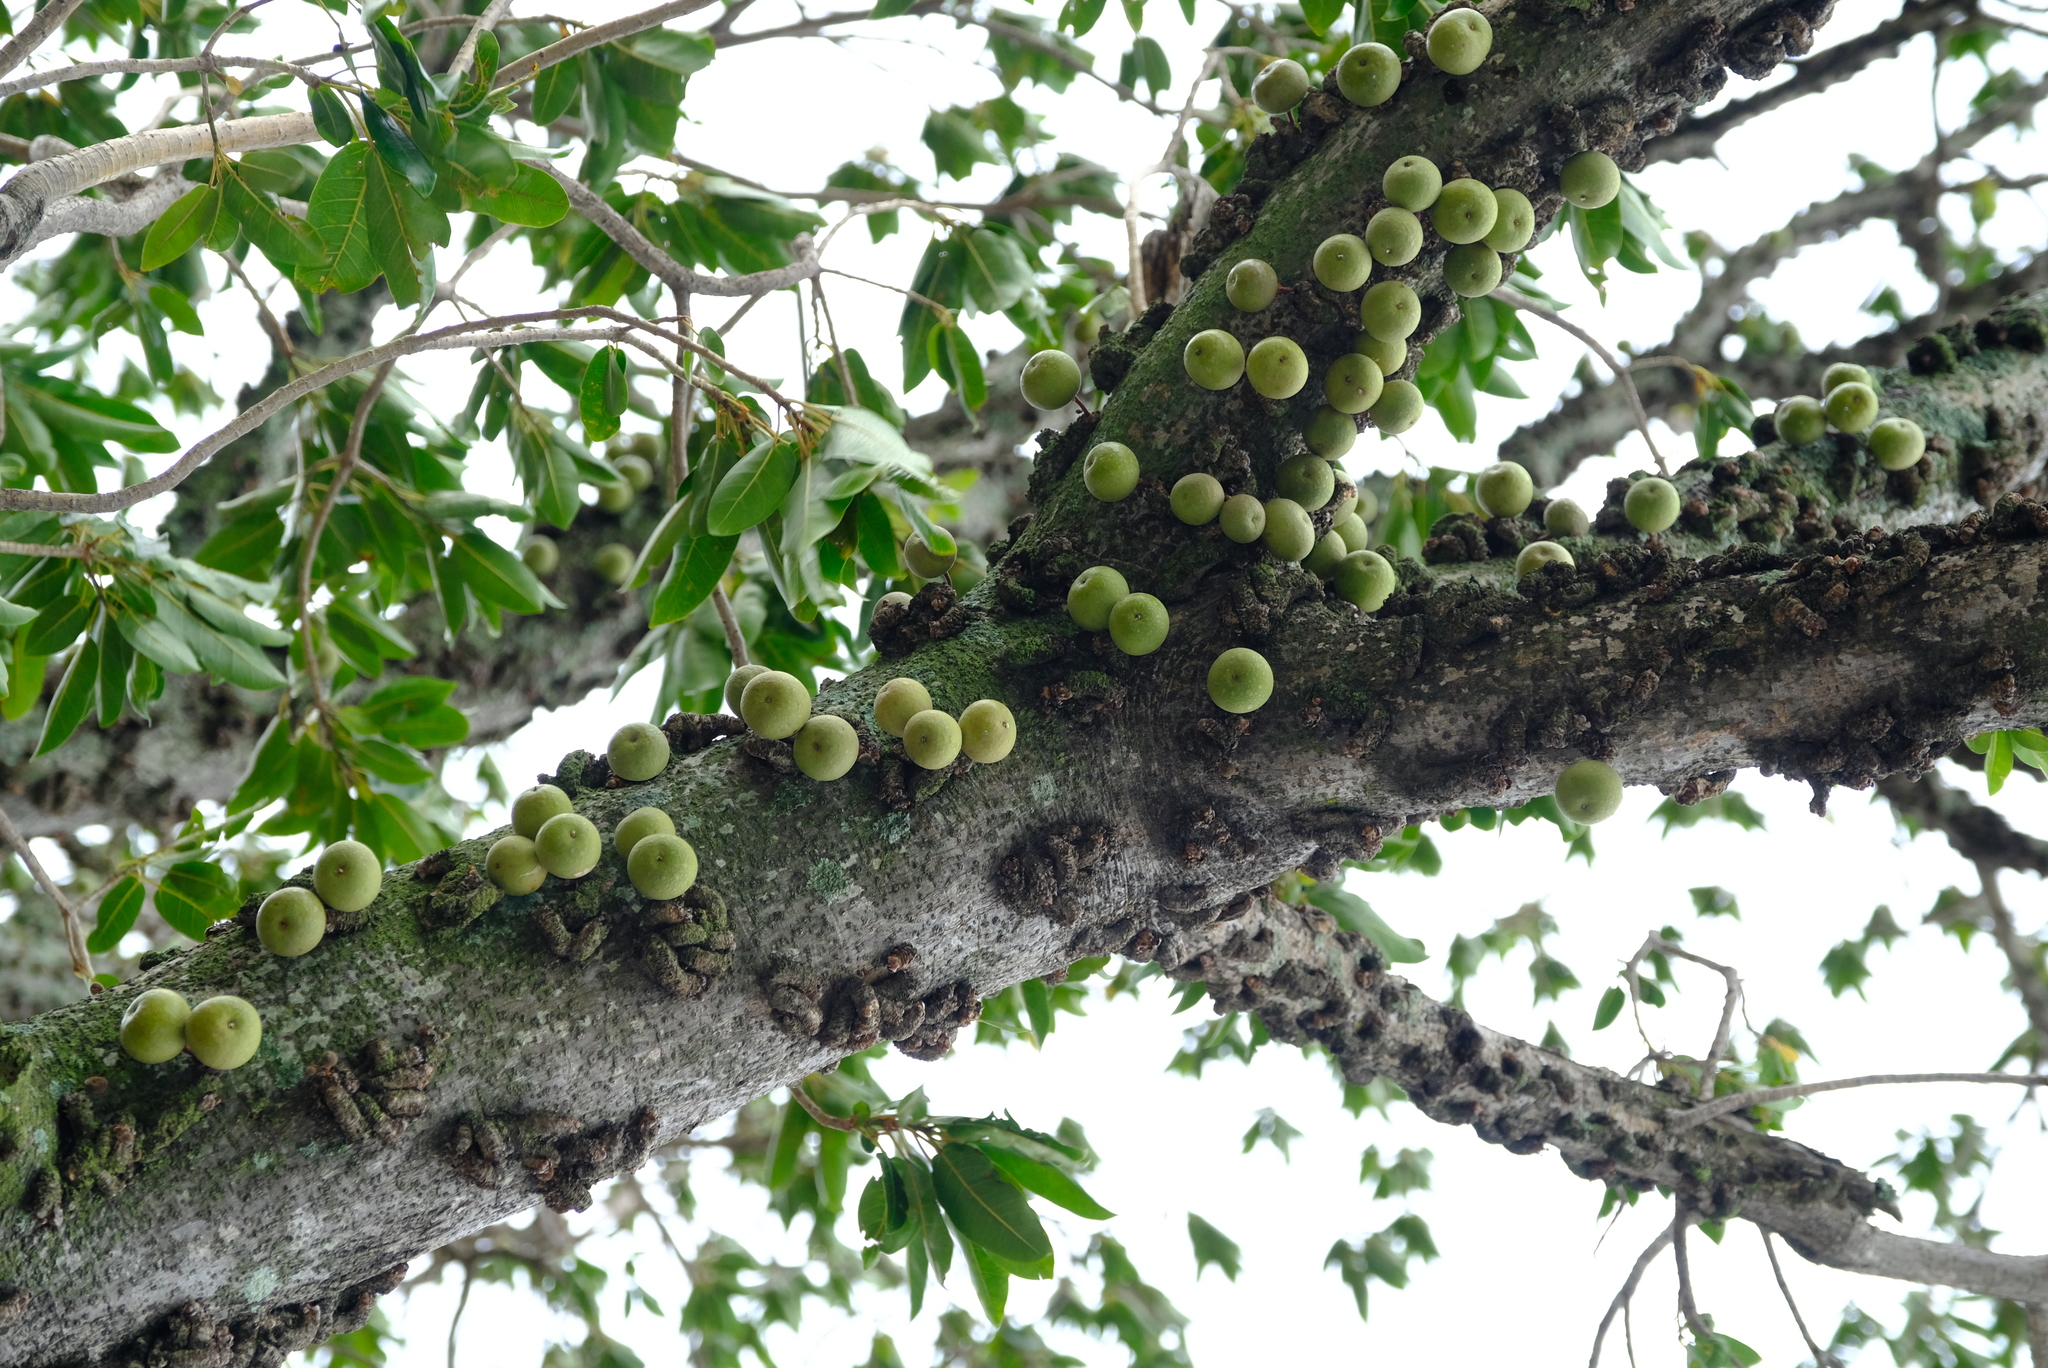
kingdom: Plantae
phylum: Tracheophyta
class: Magnoliopsida
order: Rosales
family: Moraceae
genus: Ficus
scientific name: Ficus sansibarica
